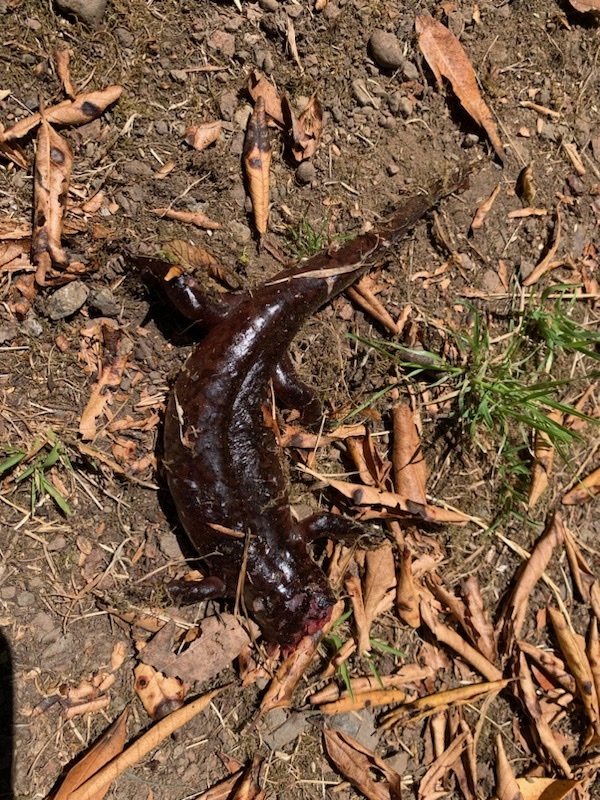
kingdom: Animalia
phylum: Chordata
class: Amphibia
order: Caudata
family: Ambystomatidae
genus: Dicamptodon
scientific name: Dicamptodon ensatus
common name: California giant salamander
